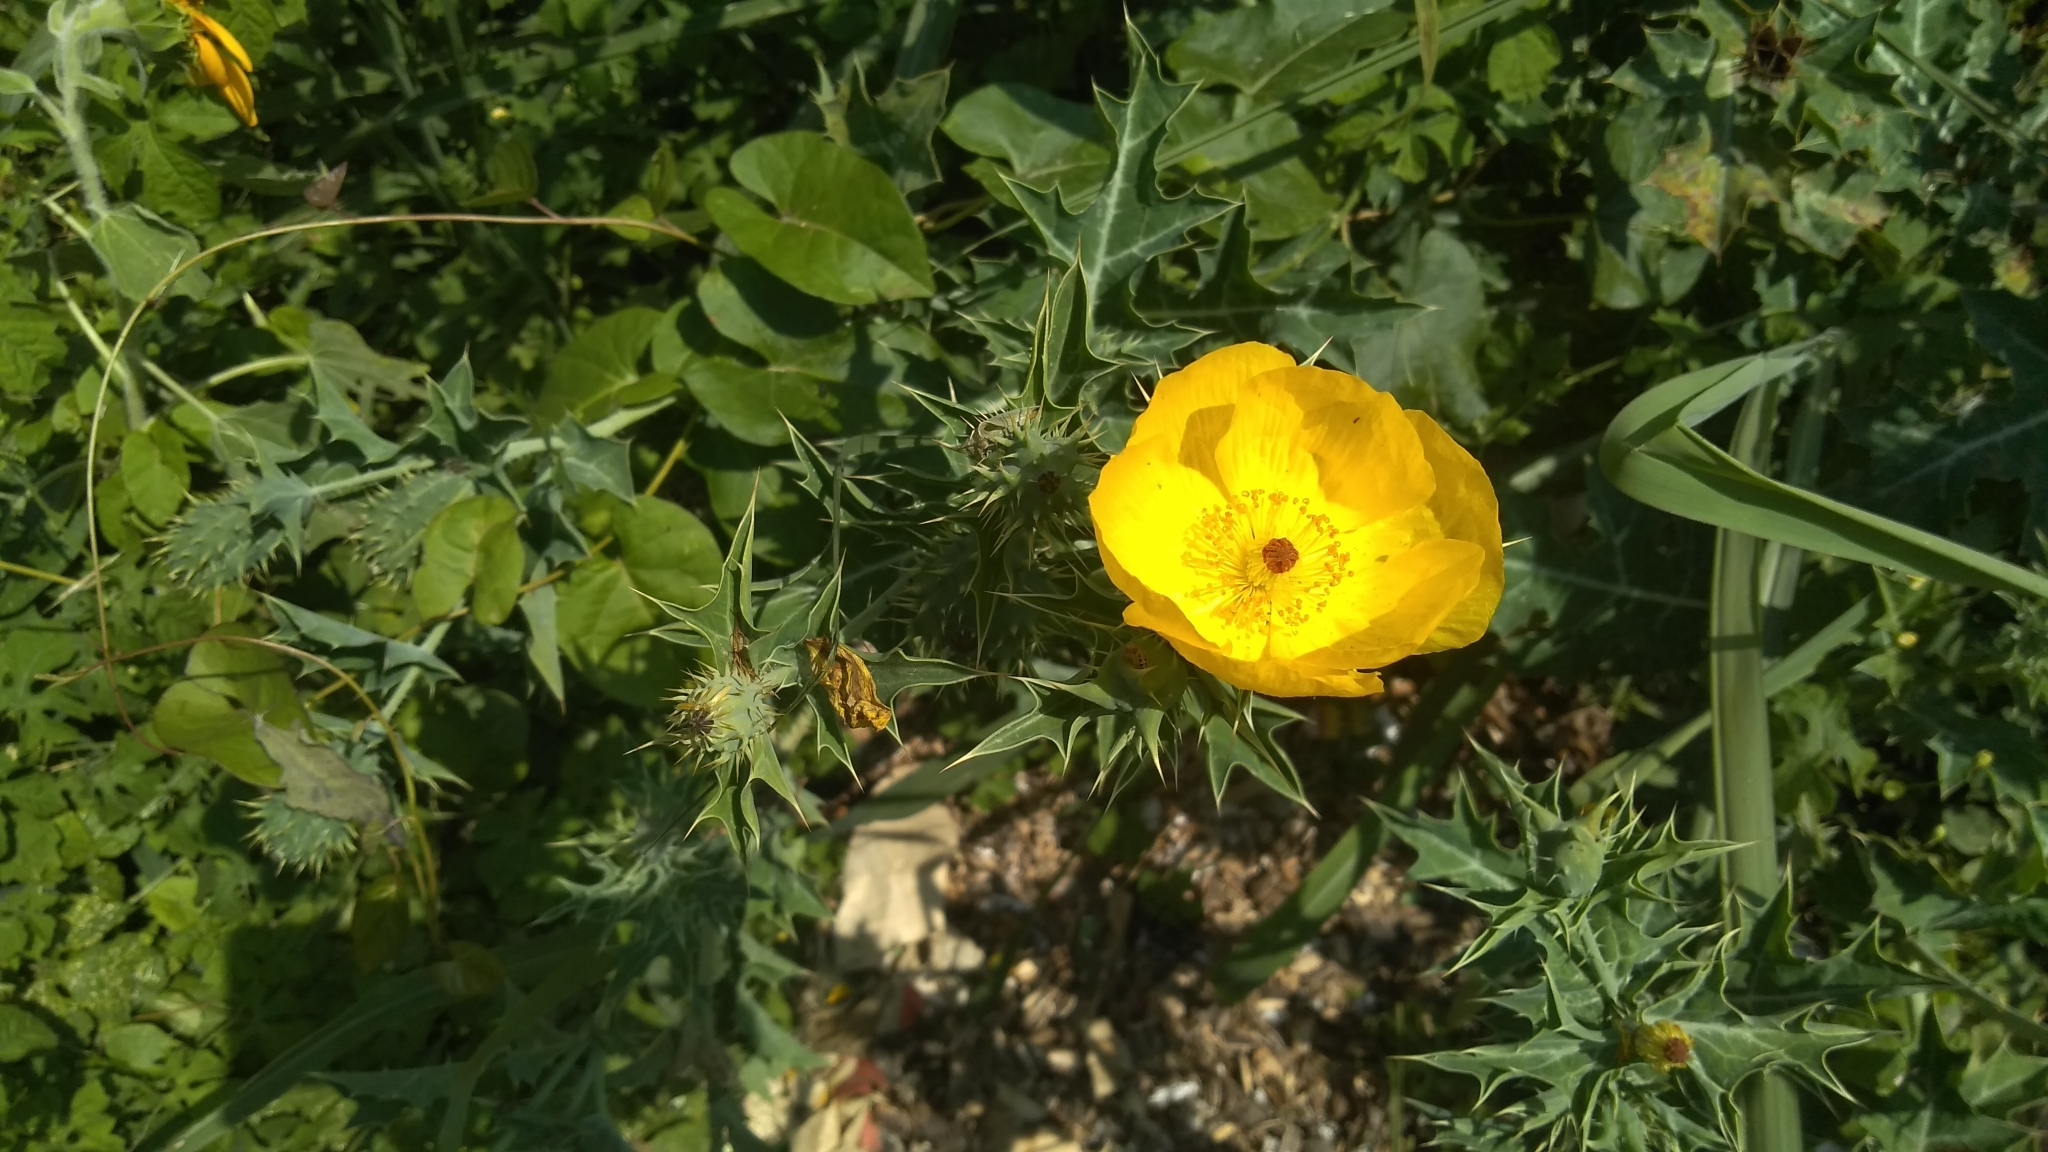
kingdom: Plantae
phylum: Tracheophyta
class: Magnoliopsida
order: Ranunculales
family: Papaveraceae
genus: Argemone
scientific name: Argemone mexicana
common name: Mexican poppy
